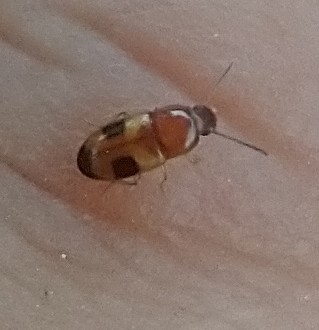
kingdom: Animalia
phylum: Arthropoda
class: Insecta
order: Coleoptera
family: Tenebrionidae
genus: Poecilocrypticus
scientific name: Poecilocrypticus formicophilus
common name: Darkling beetle
